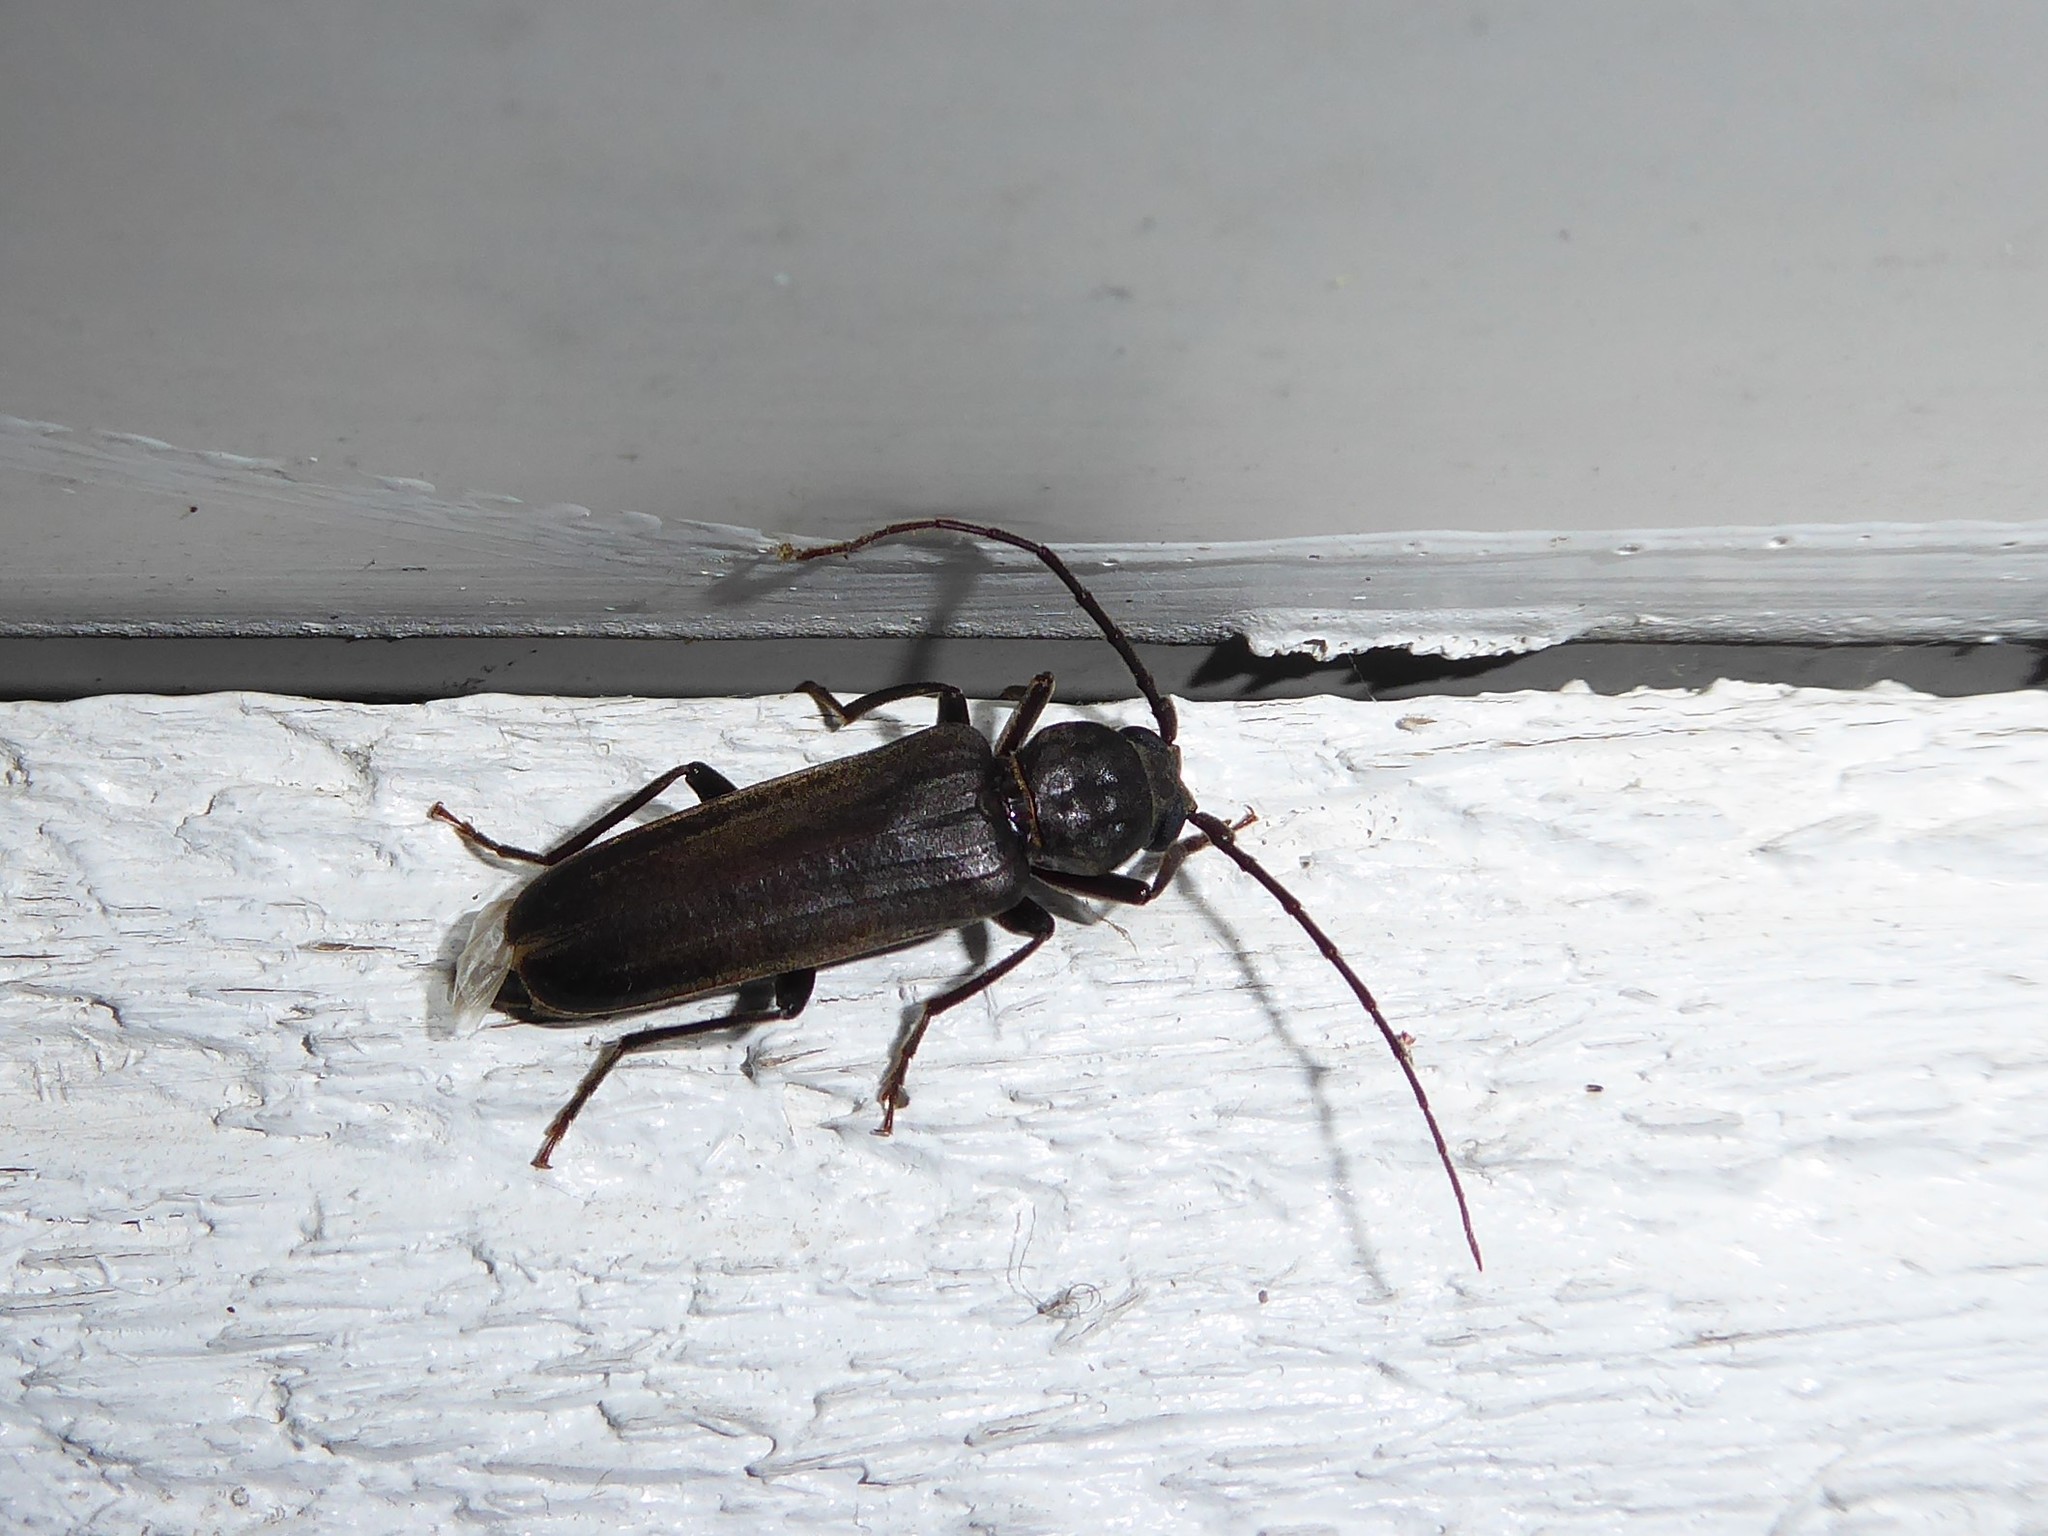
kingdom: Animalia
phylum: Arthropoda
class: Insecta
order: Coleoptera
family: Cerambycidae
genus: Arhopalus
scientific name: Arhopalus ferus
